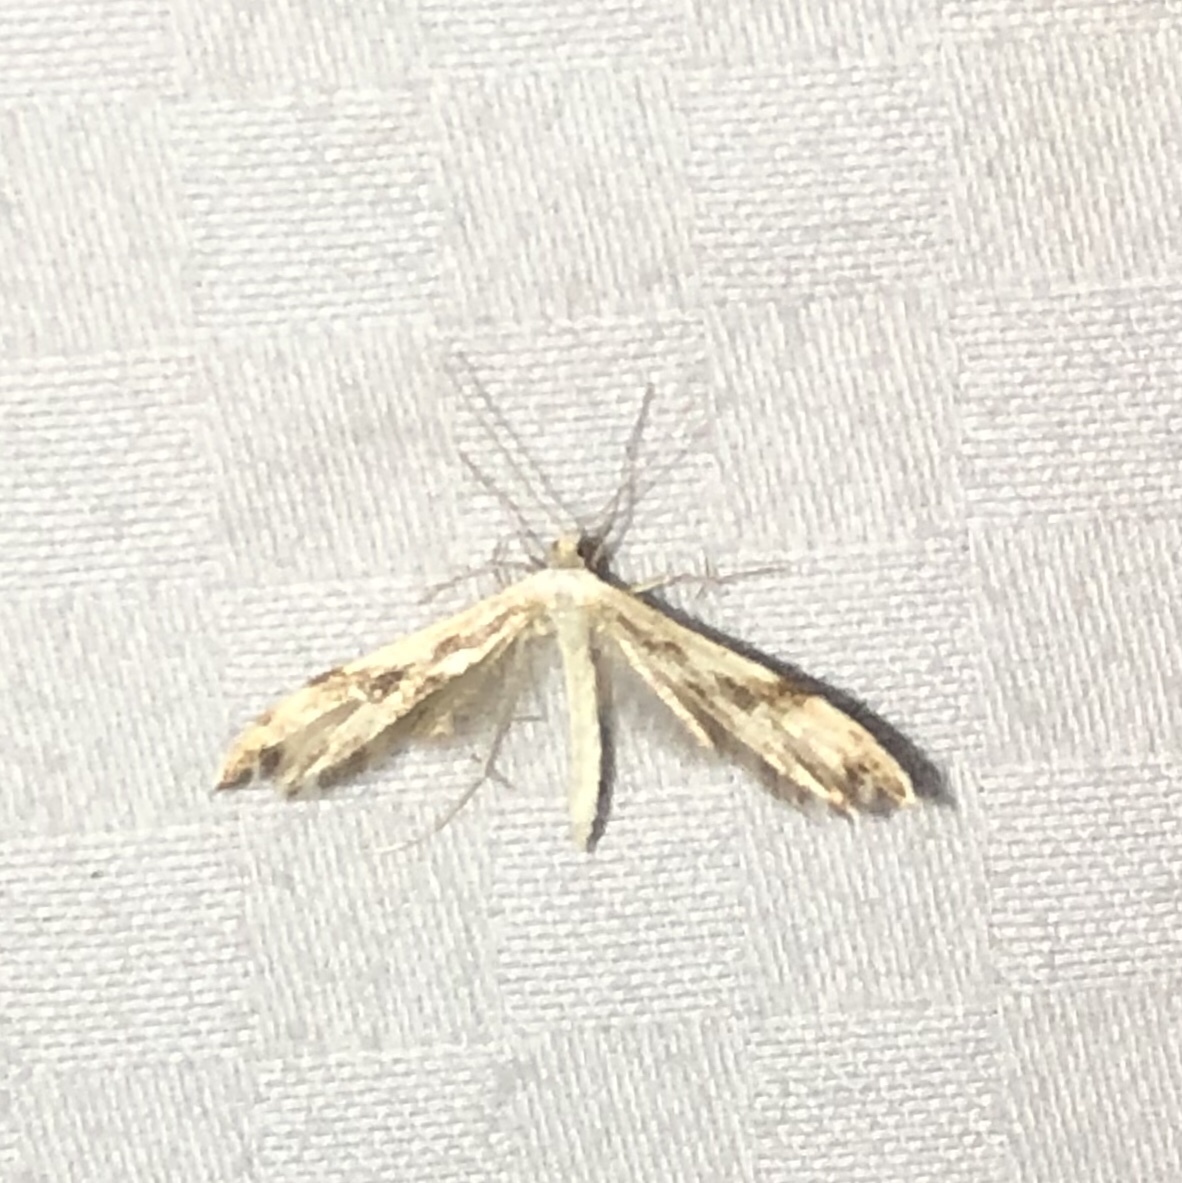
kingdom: Animalia
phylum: Arthropoda
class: Insecta
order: Lepidoptera
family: Pterophoridae
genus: Adaina
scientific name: Adaina montanus
